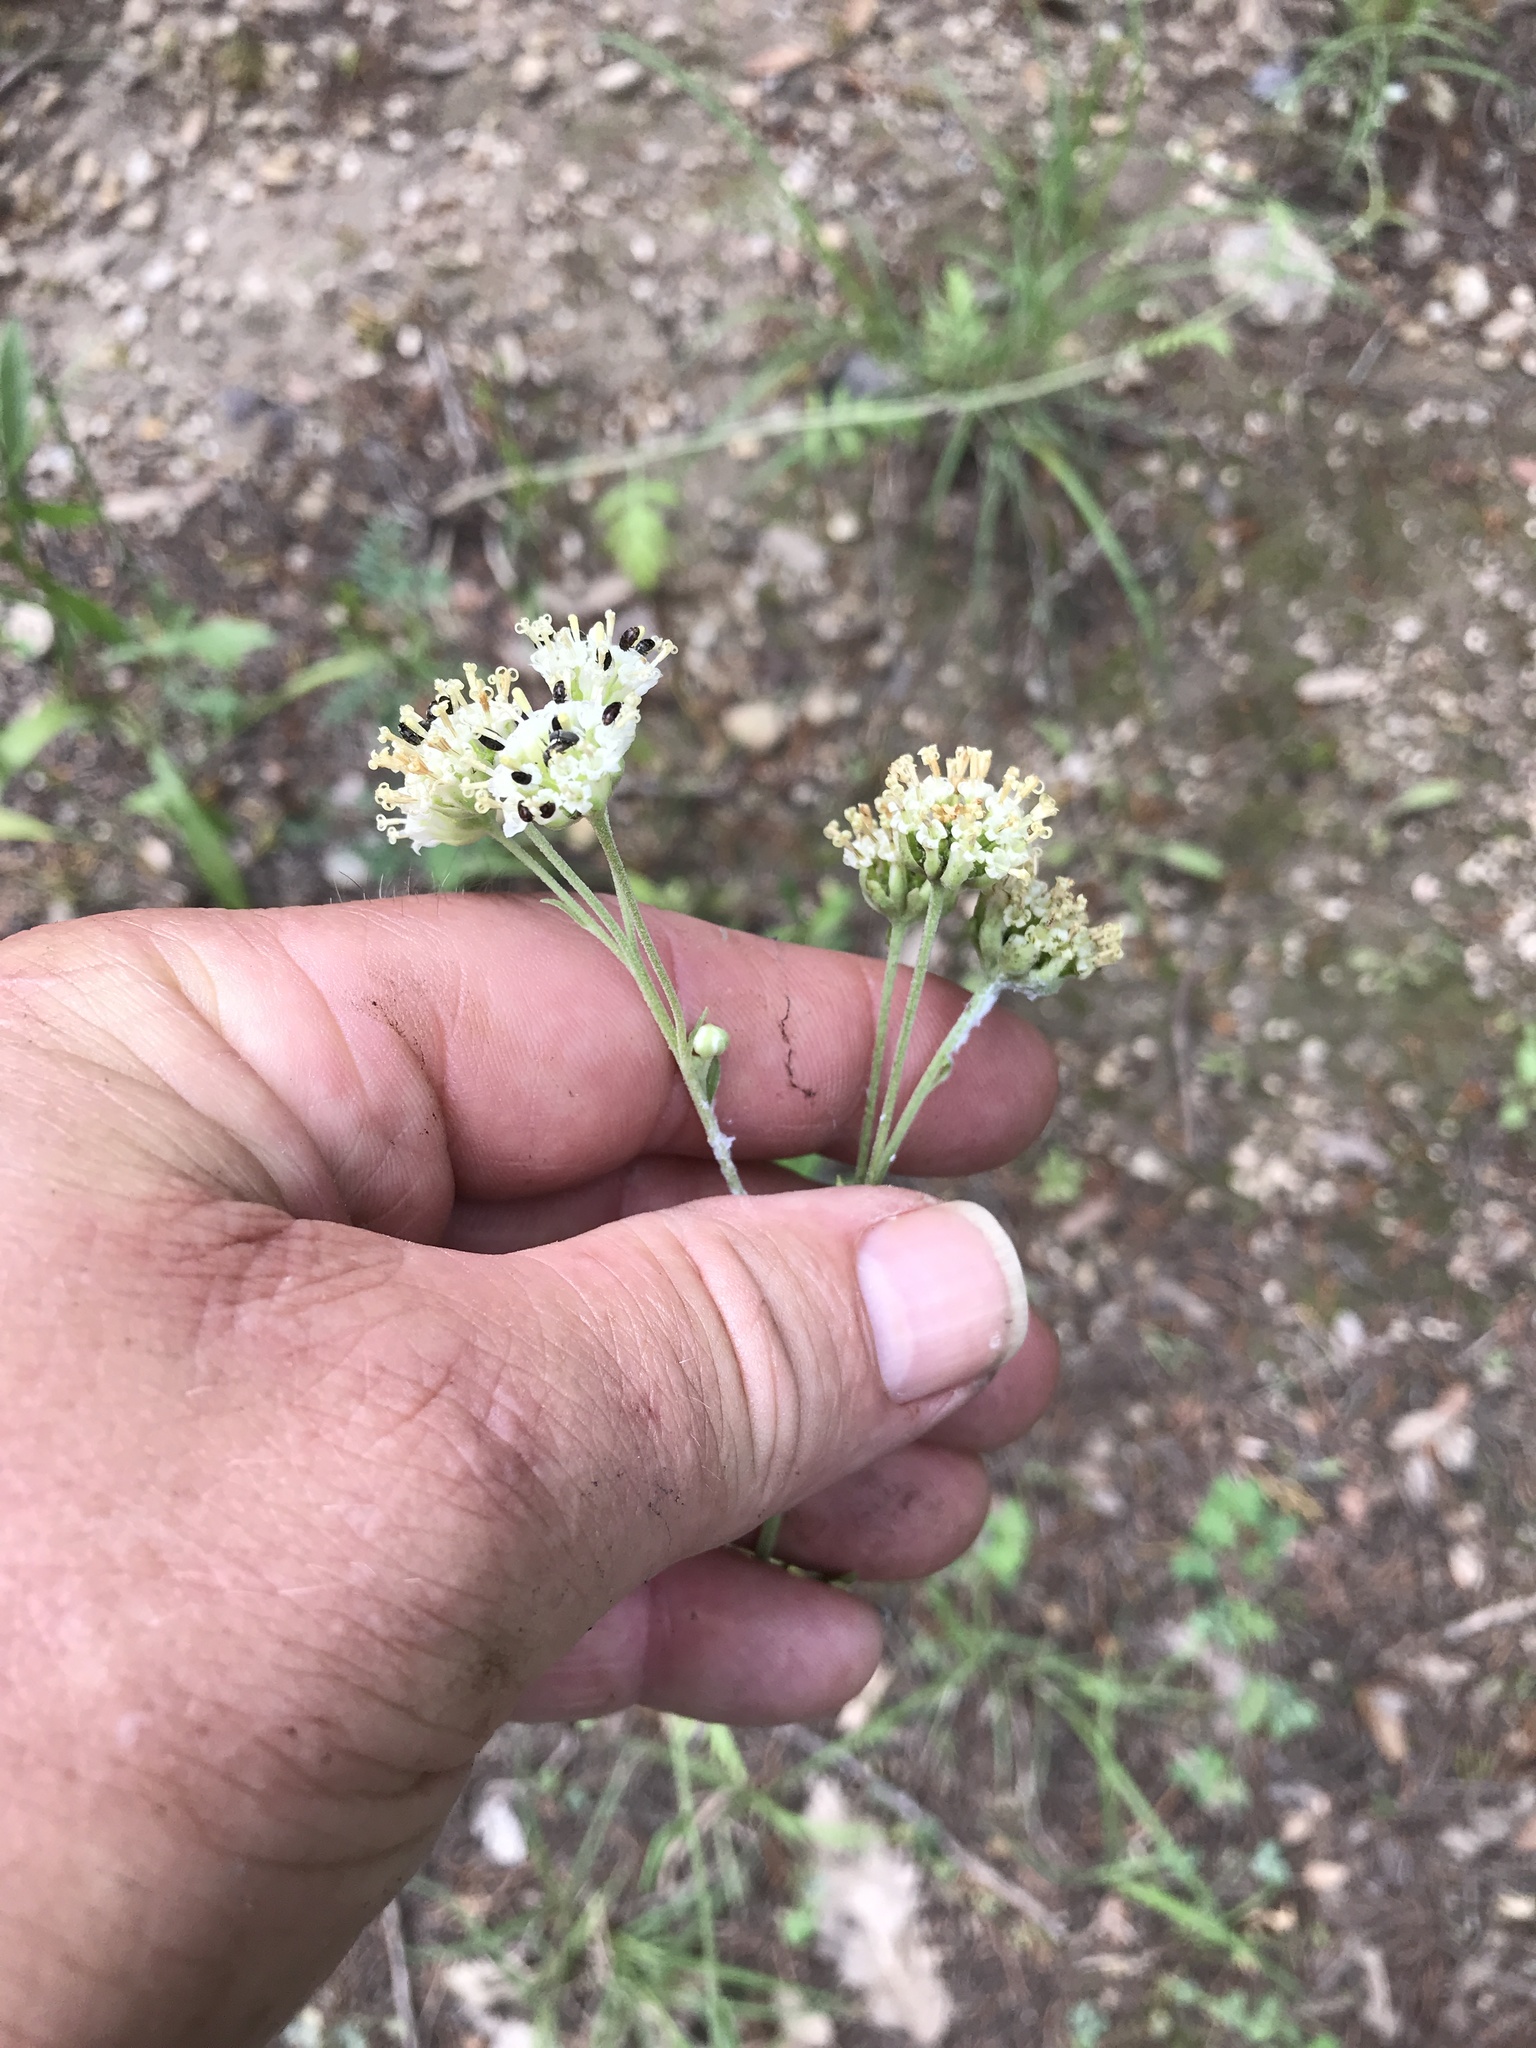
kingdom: Plantae
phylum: Tracheophyta
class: Magnoliopsida
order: Asterales
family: Asteraceae
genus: Hymenopappus
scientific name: Hymenopappus scabiosaeus
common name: Carolina woollywhite
